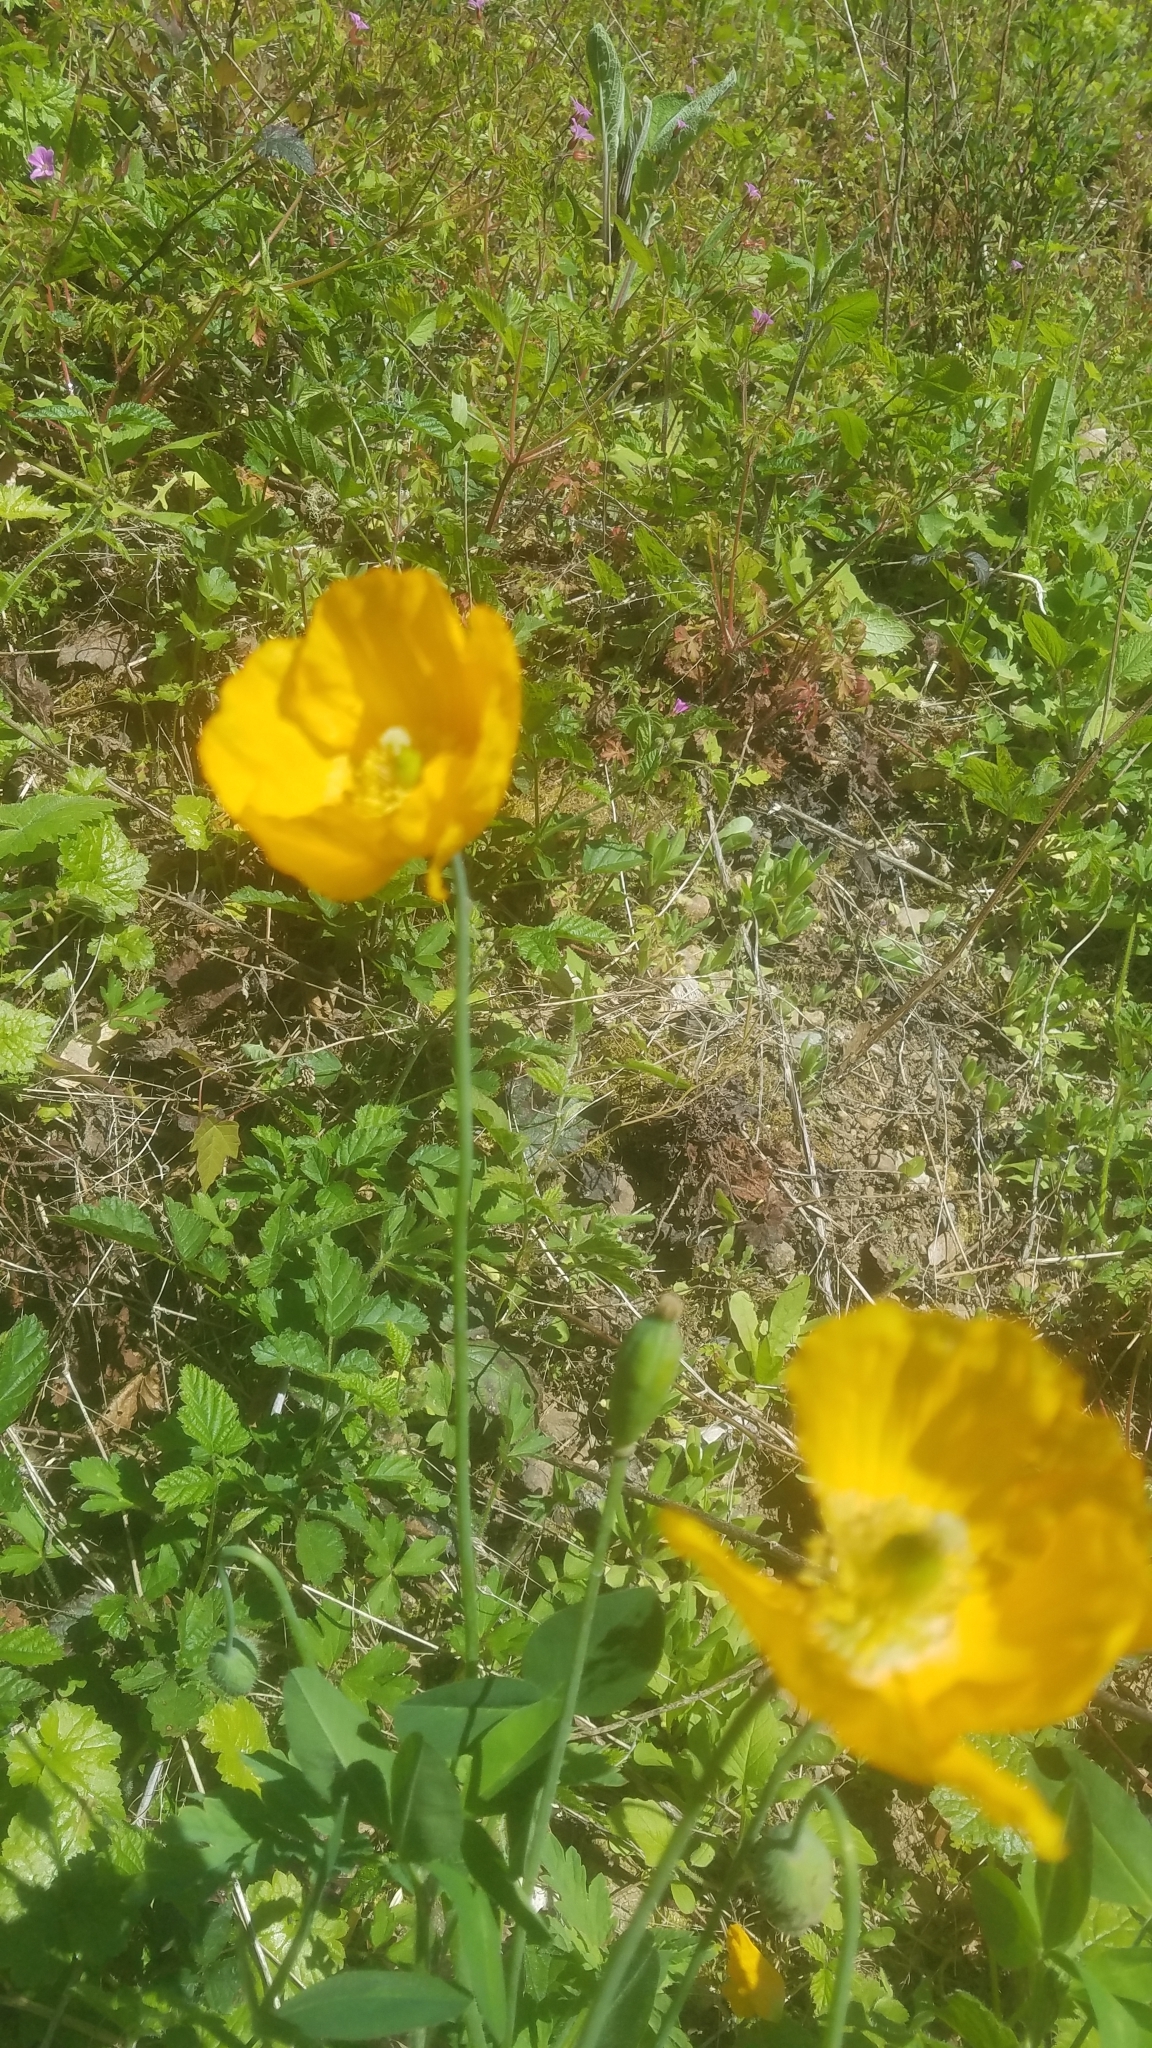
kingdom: Plantae
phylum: Tracheophyta
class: Magnoliopsida
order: Ranunculales
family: Papaveraceae
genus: Papaver
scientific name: Papaver cambricum
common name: Poppy
